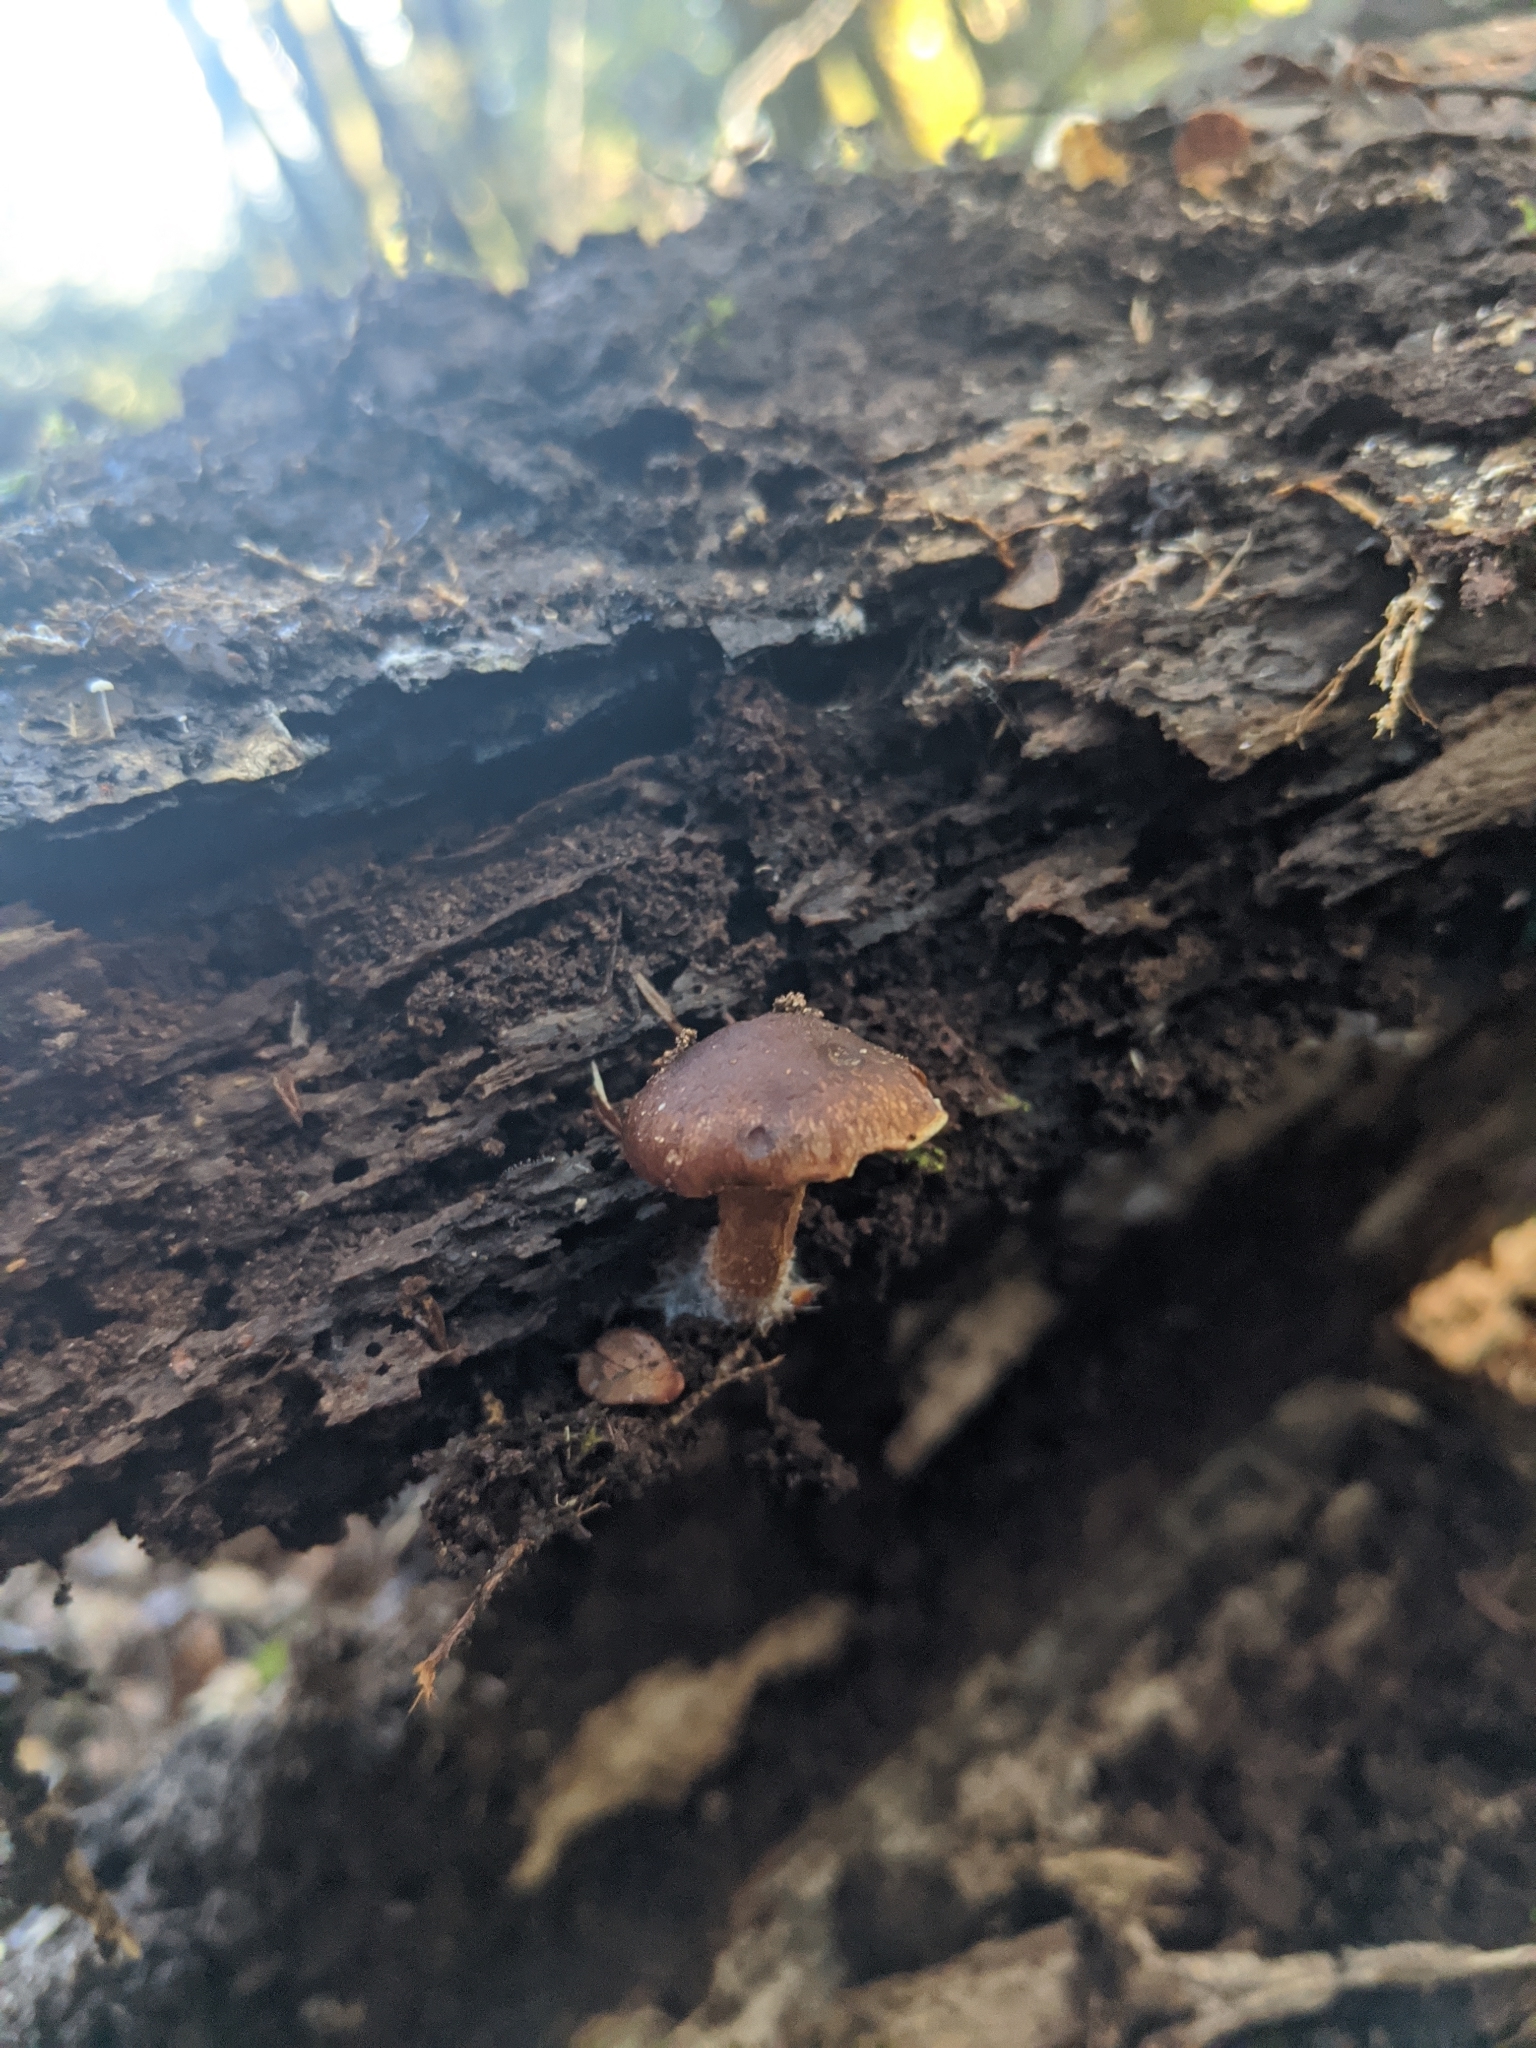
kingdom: Fungi
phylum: Basidiomycota
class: Agaricomycetes
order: Agaricales
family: Strophariaceae
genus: Pholiota
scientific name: Pholiota multicingulata
